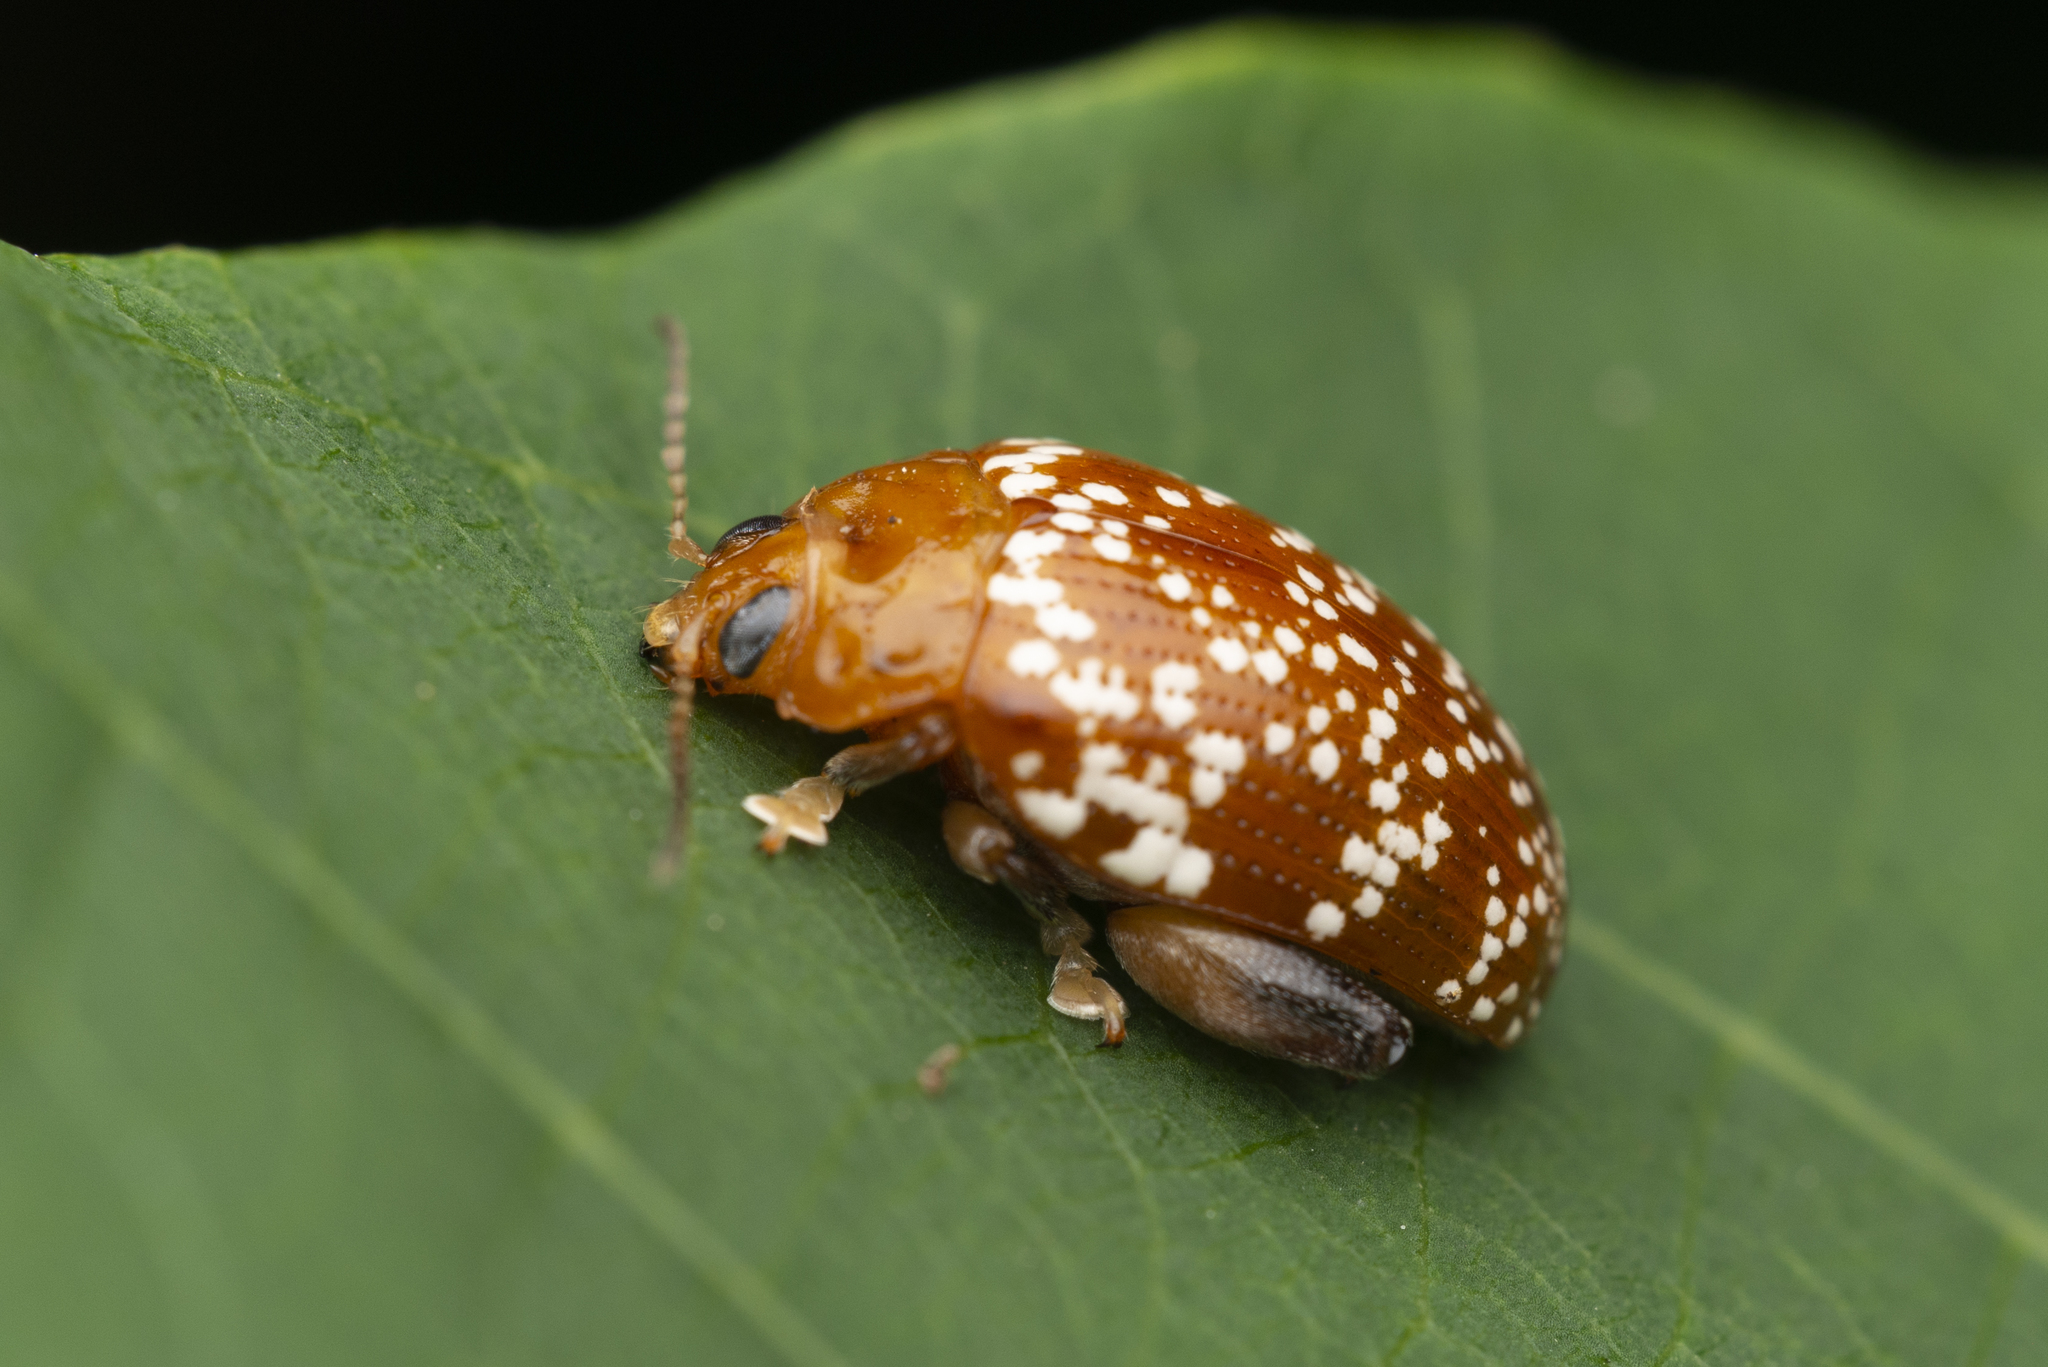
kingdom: Animalia
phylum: Arthropoda
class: Insecta
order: Coleoptera
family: Chrysomelidae
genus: Asiophrida
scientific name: Asiophrida
